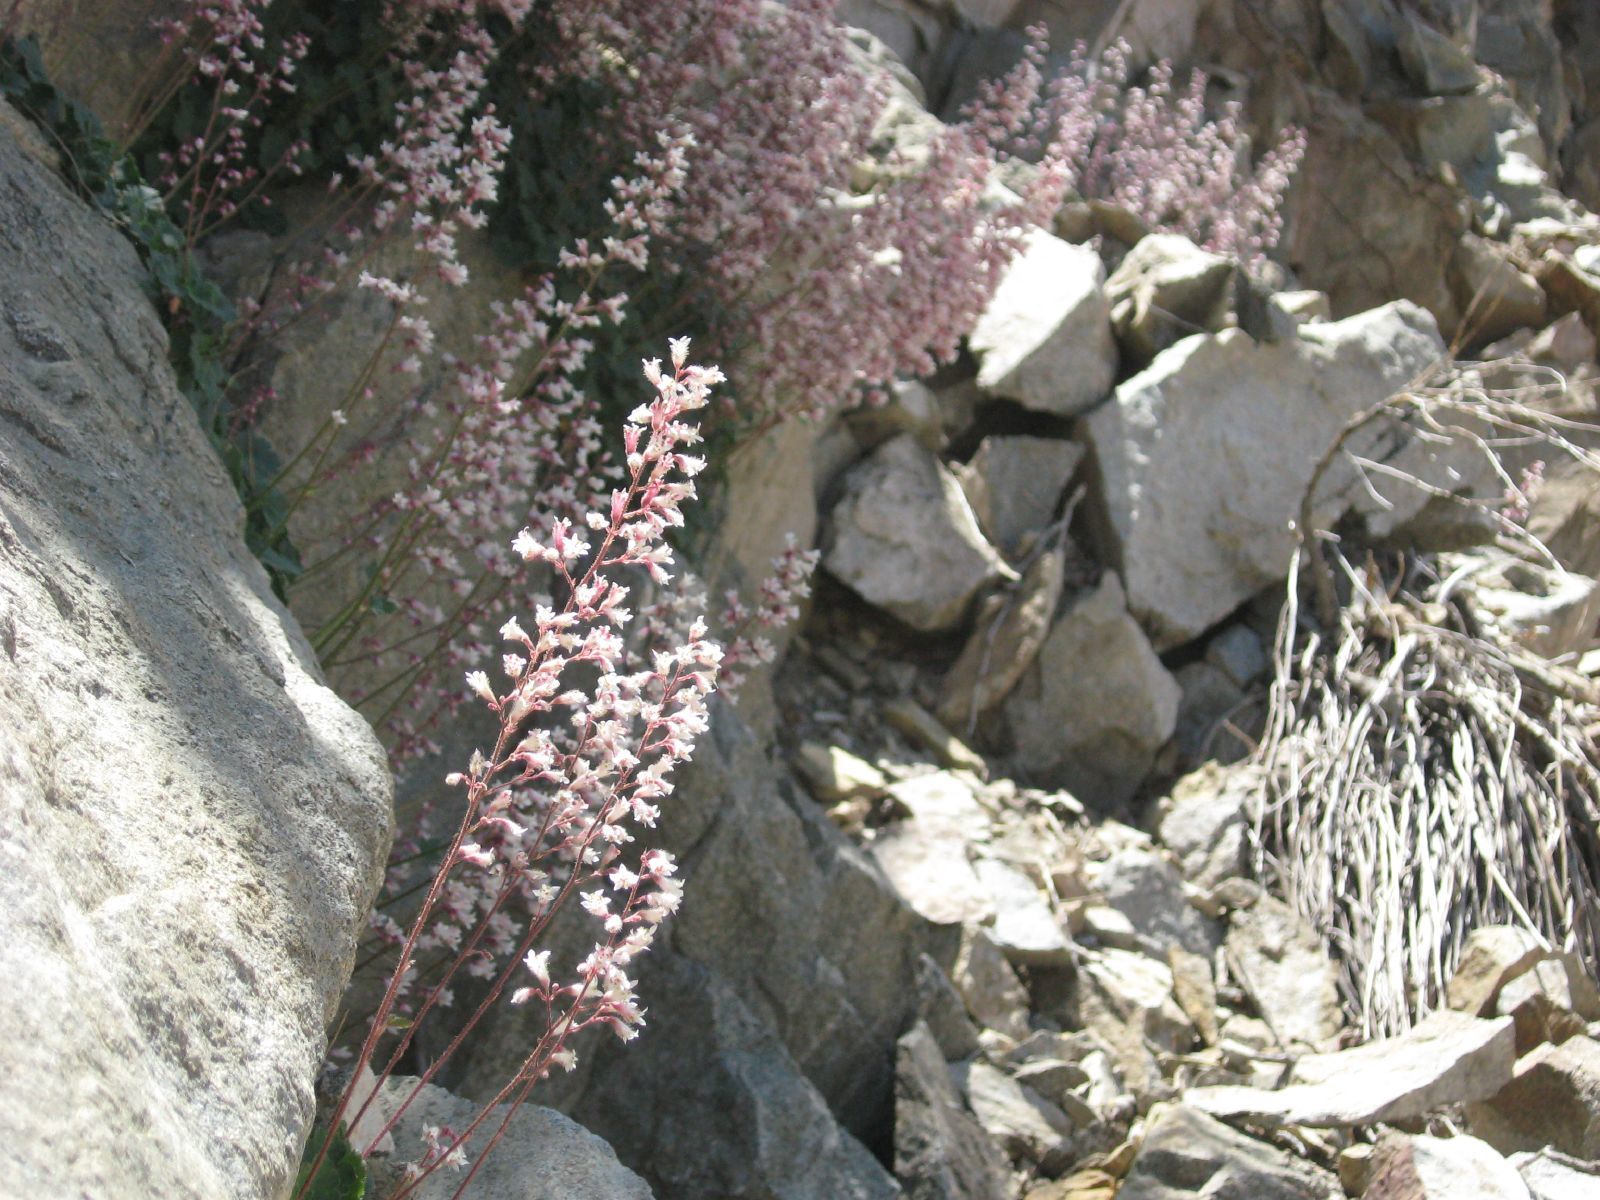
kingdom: Plantae
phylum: Tracheophyta
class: Magnoliopsida
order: Saxifragales
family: Saxifragaceae
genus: Heuchera
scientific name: Heuchera elegans
